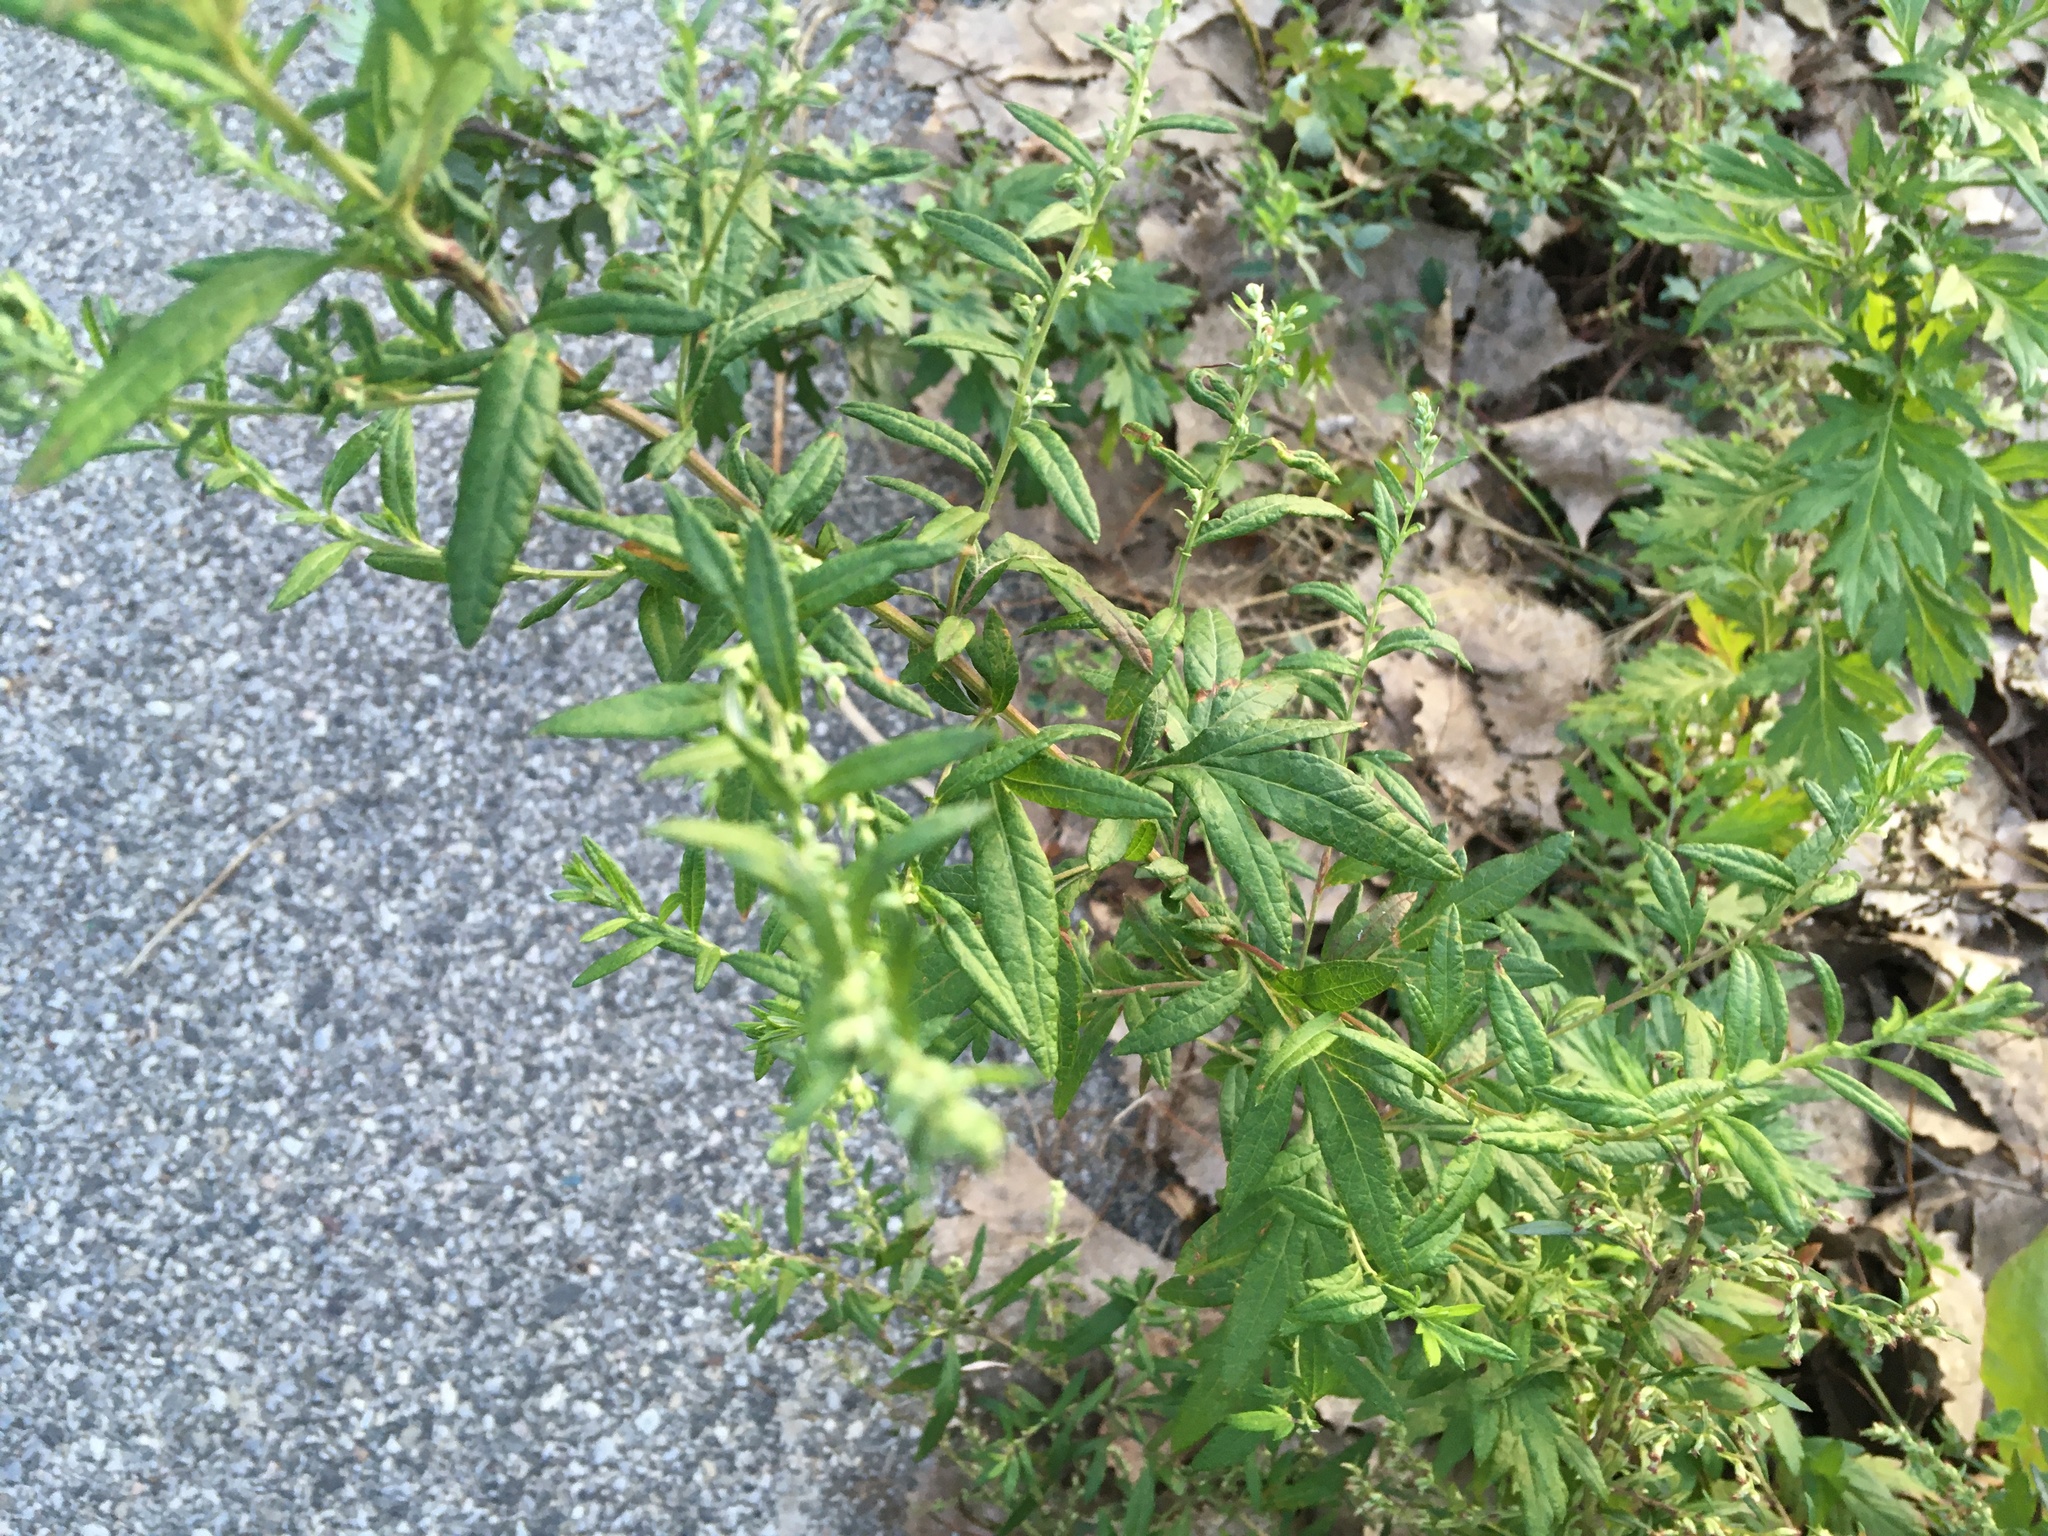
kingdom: Plantae
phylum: Tracheophyta
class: Magnoliopsida
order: Asterales
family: Asteraceae
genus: Artemisia
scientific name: Artemisia vulgaris
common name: Mugwort
